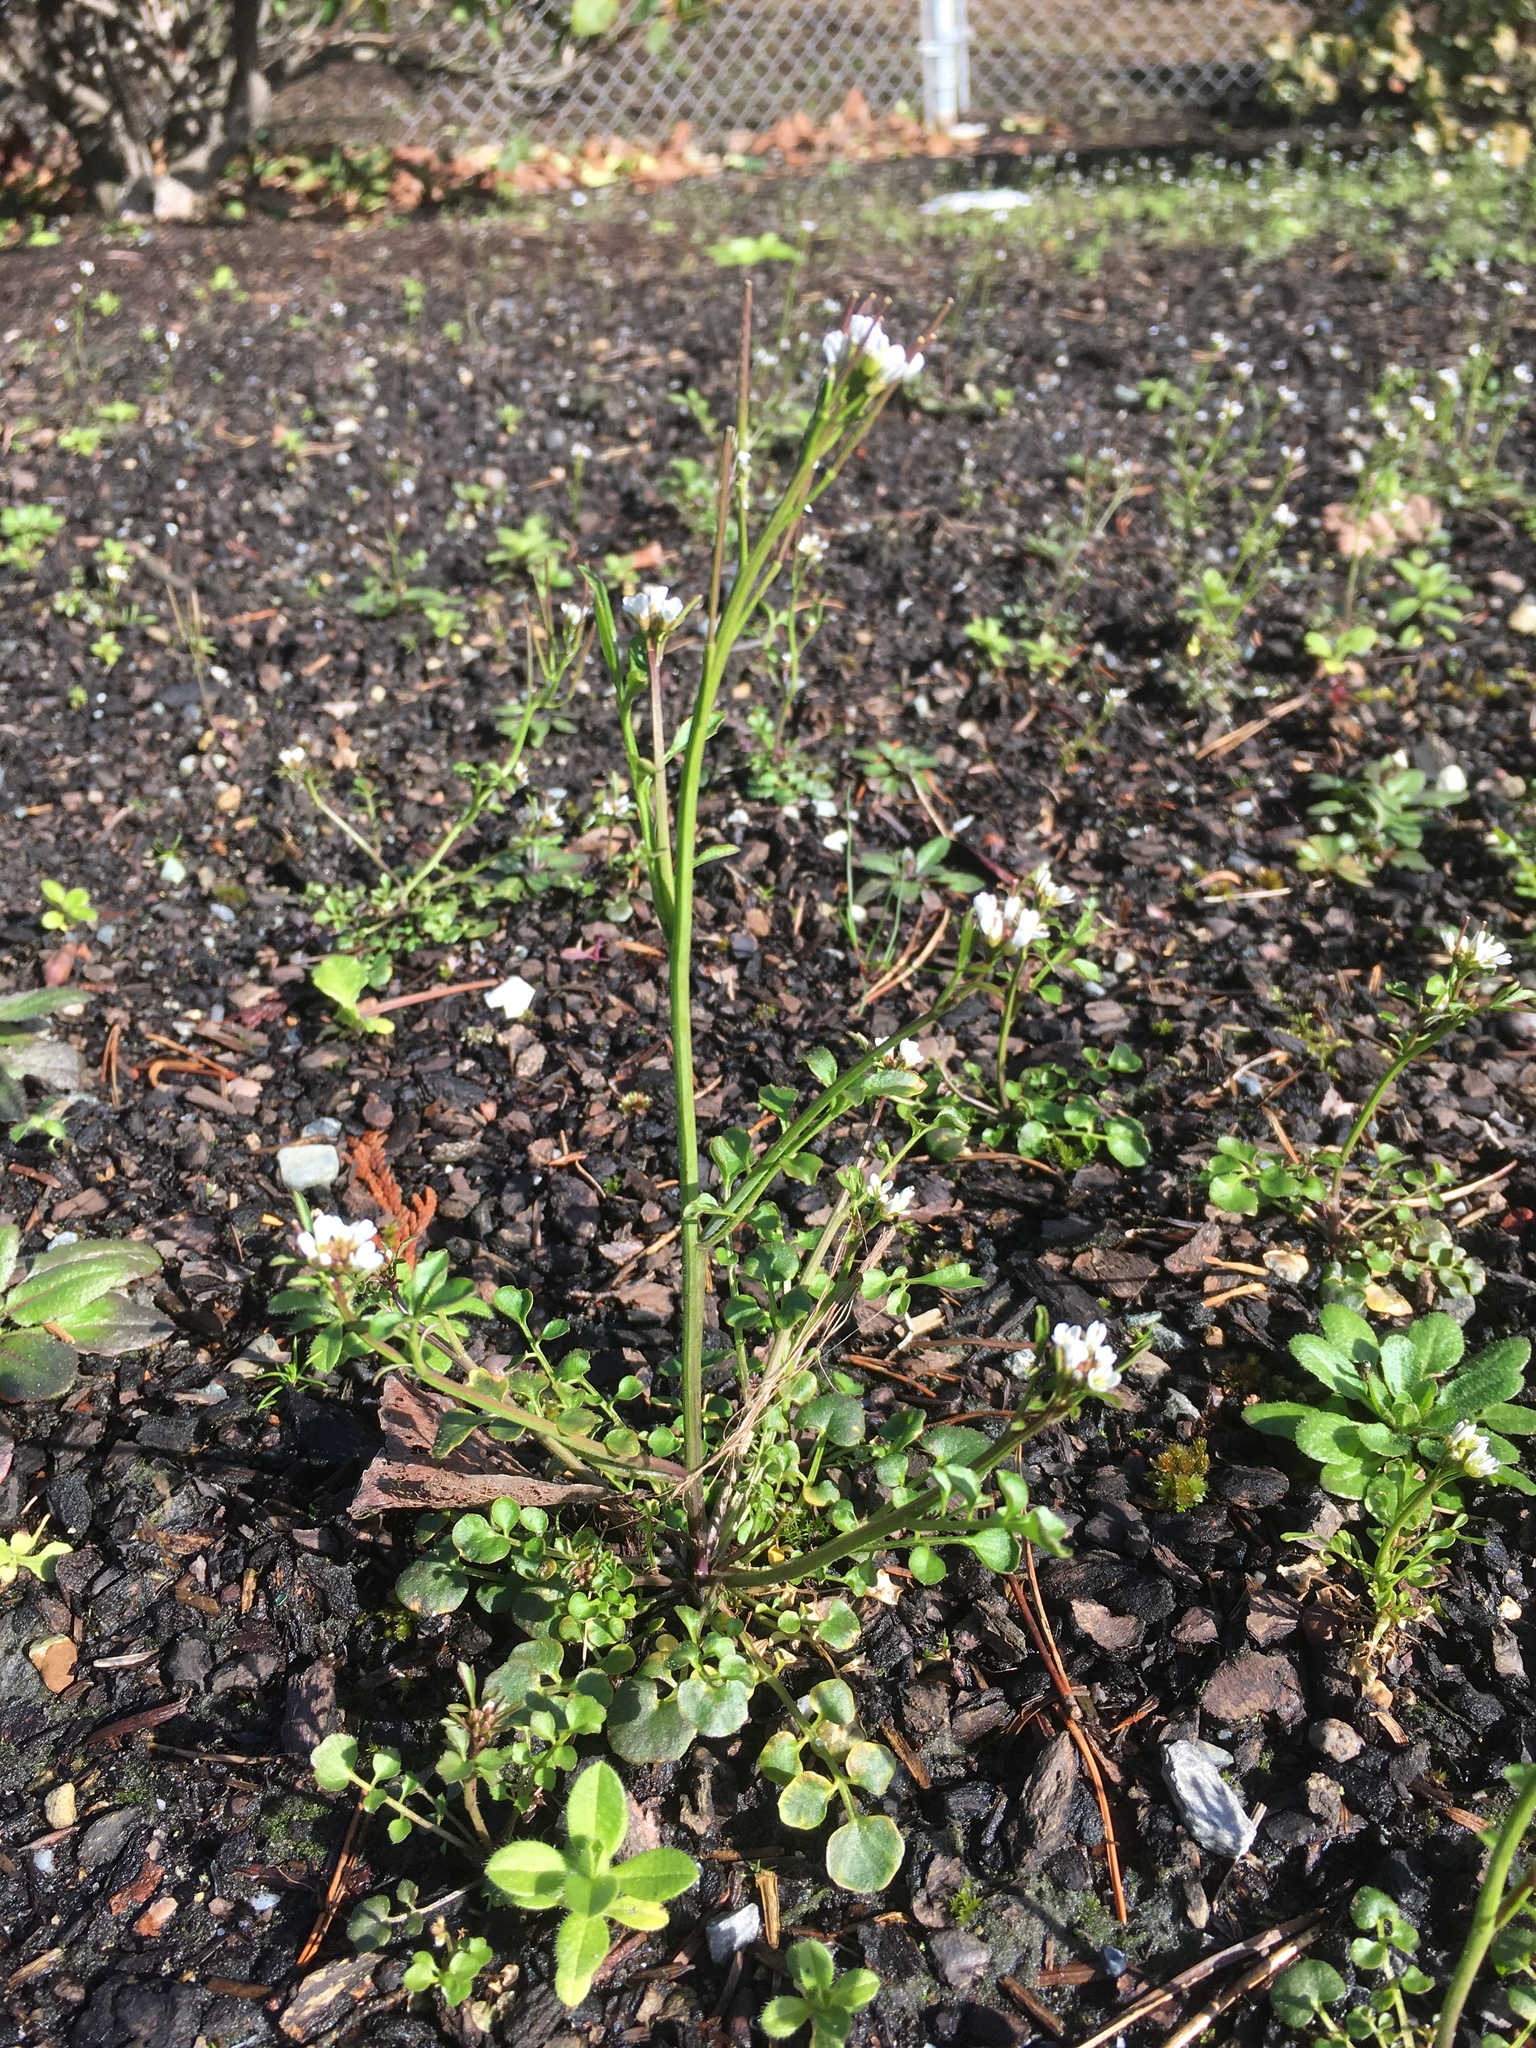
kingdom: Plantae
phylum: Tracheophyta
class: Magnoliopsida
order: Brassicales
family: Brassicaceae
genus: Cardamine
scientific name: Cardamine hirsuta
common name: Hairy bittercress
